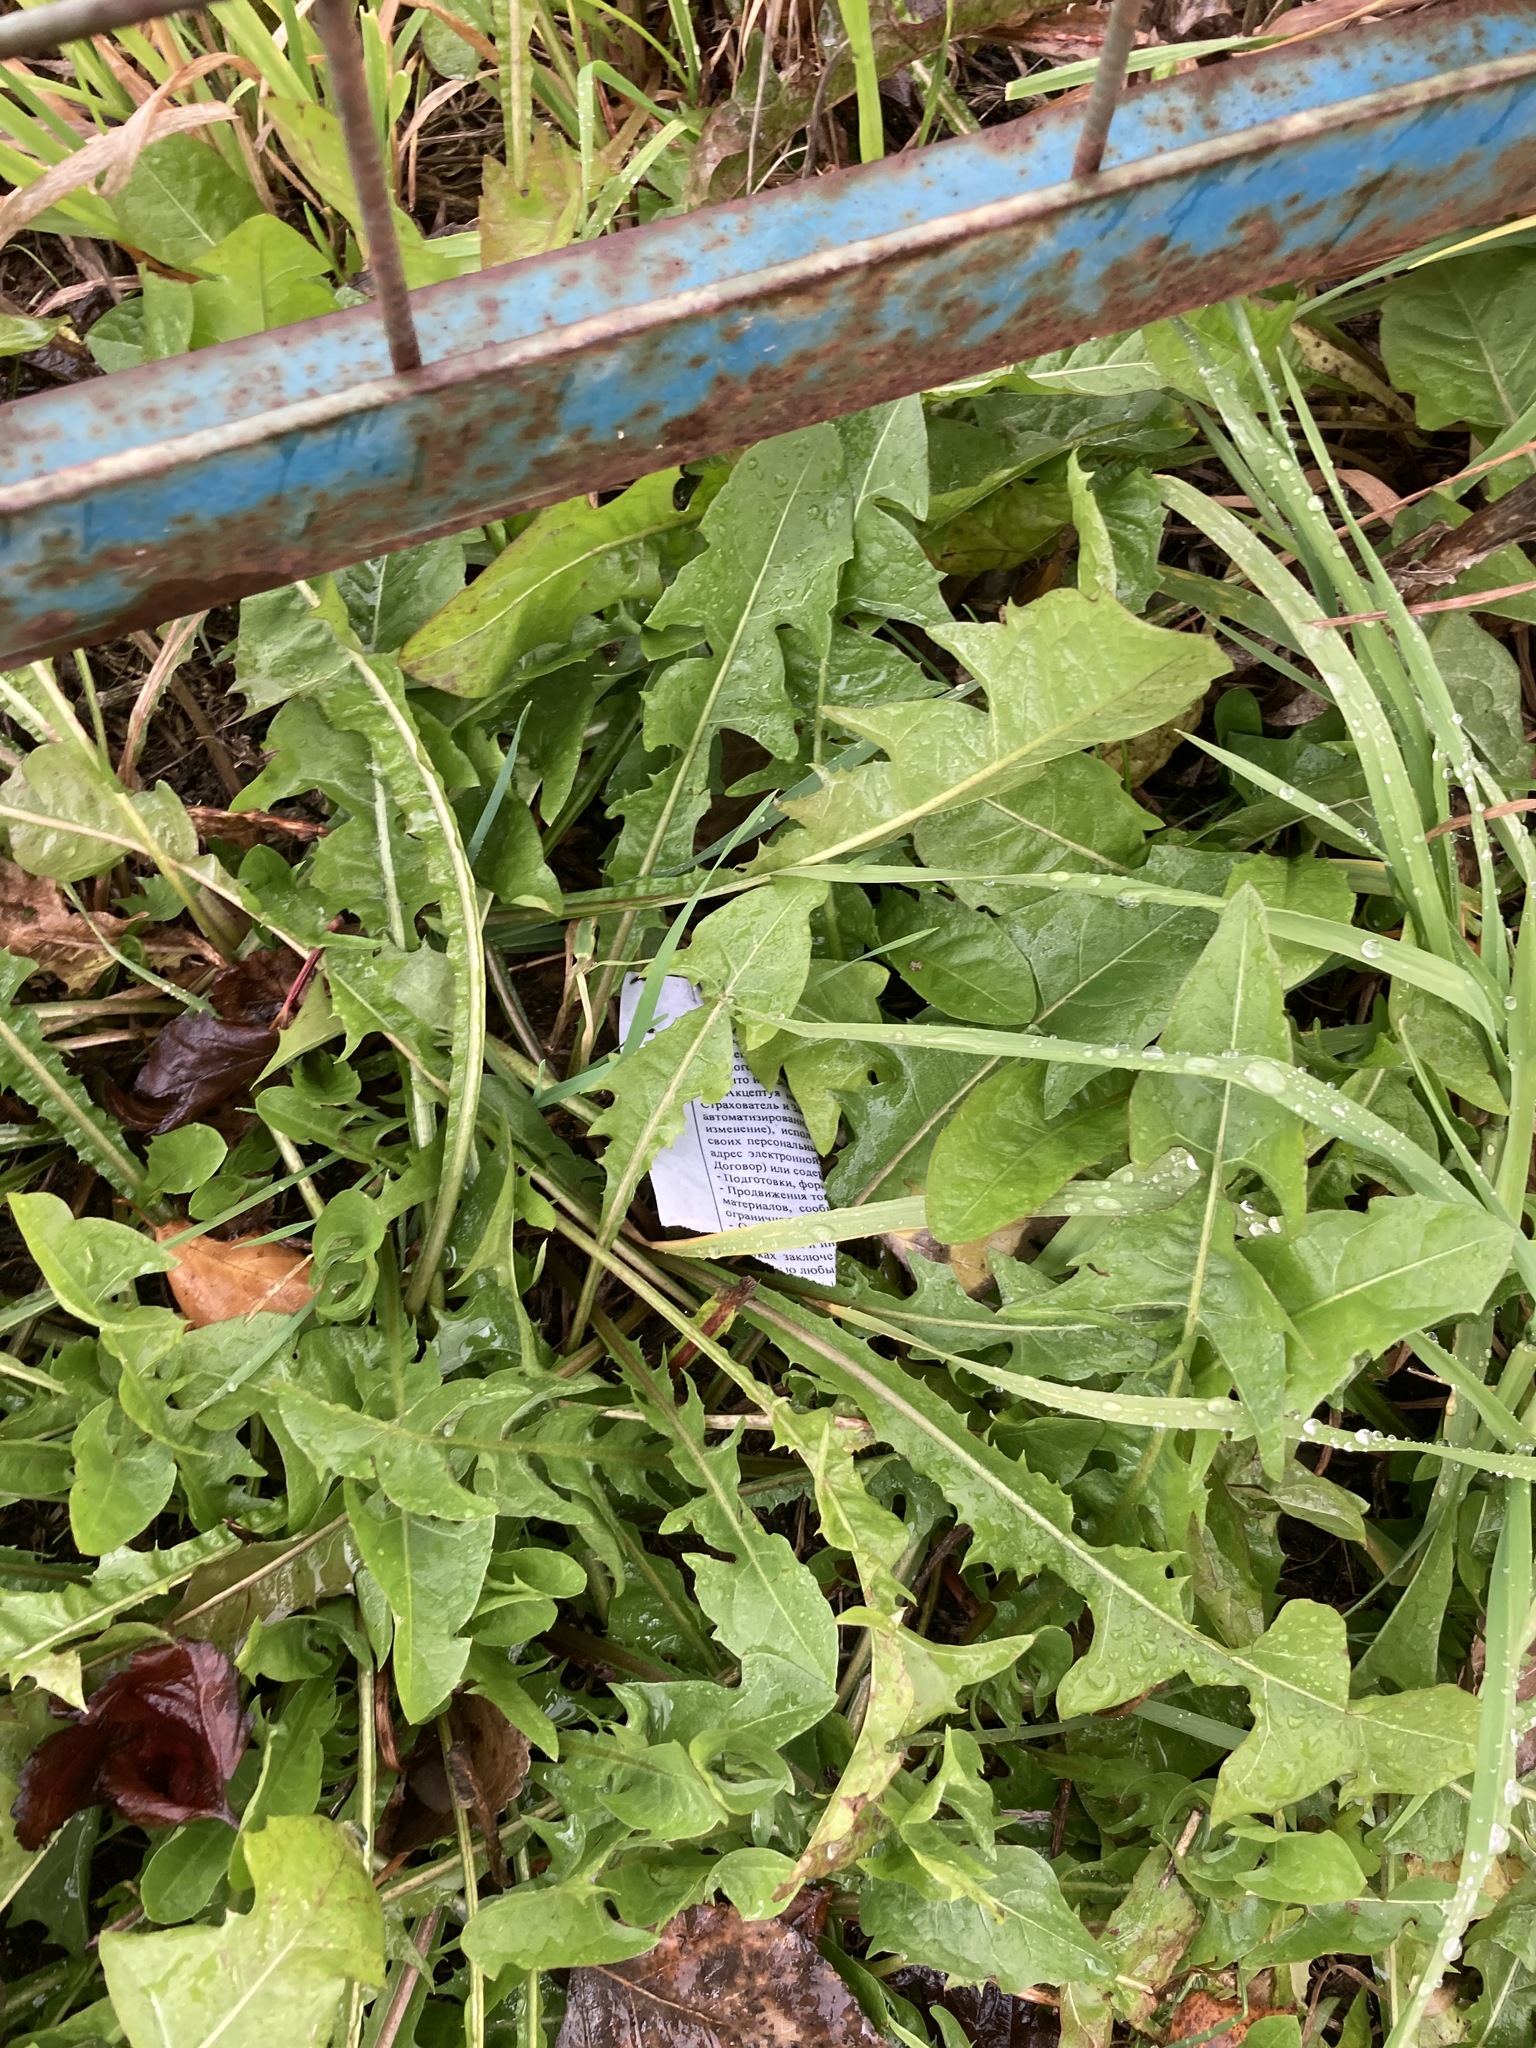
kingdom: Plantae
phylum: Tracheophyta
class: Magnoliopsida
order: Asterales
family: Asteraceae
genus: Taraxacum
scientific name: Taraxacum officinale
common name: Common dandelion
